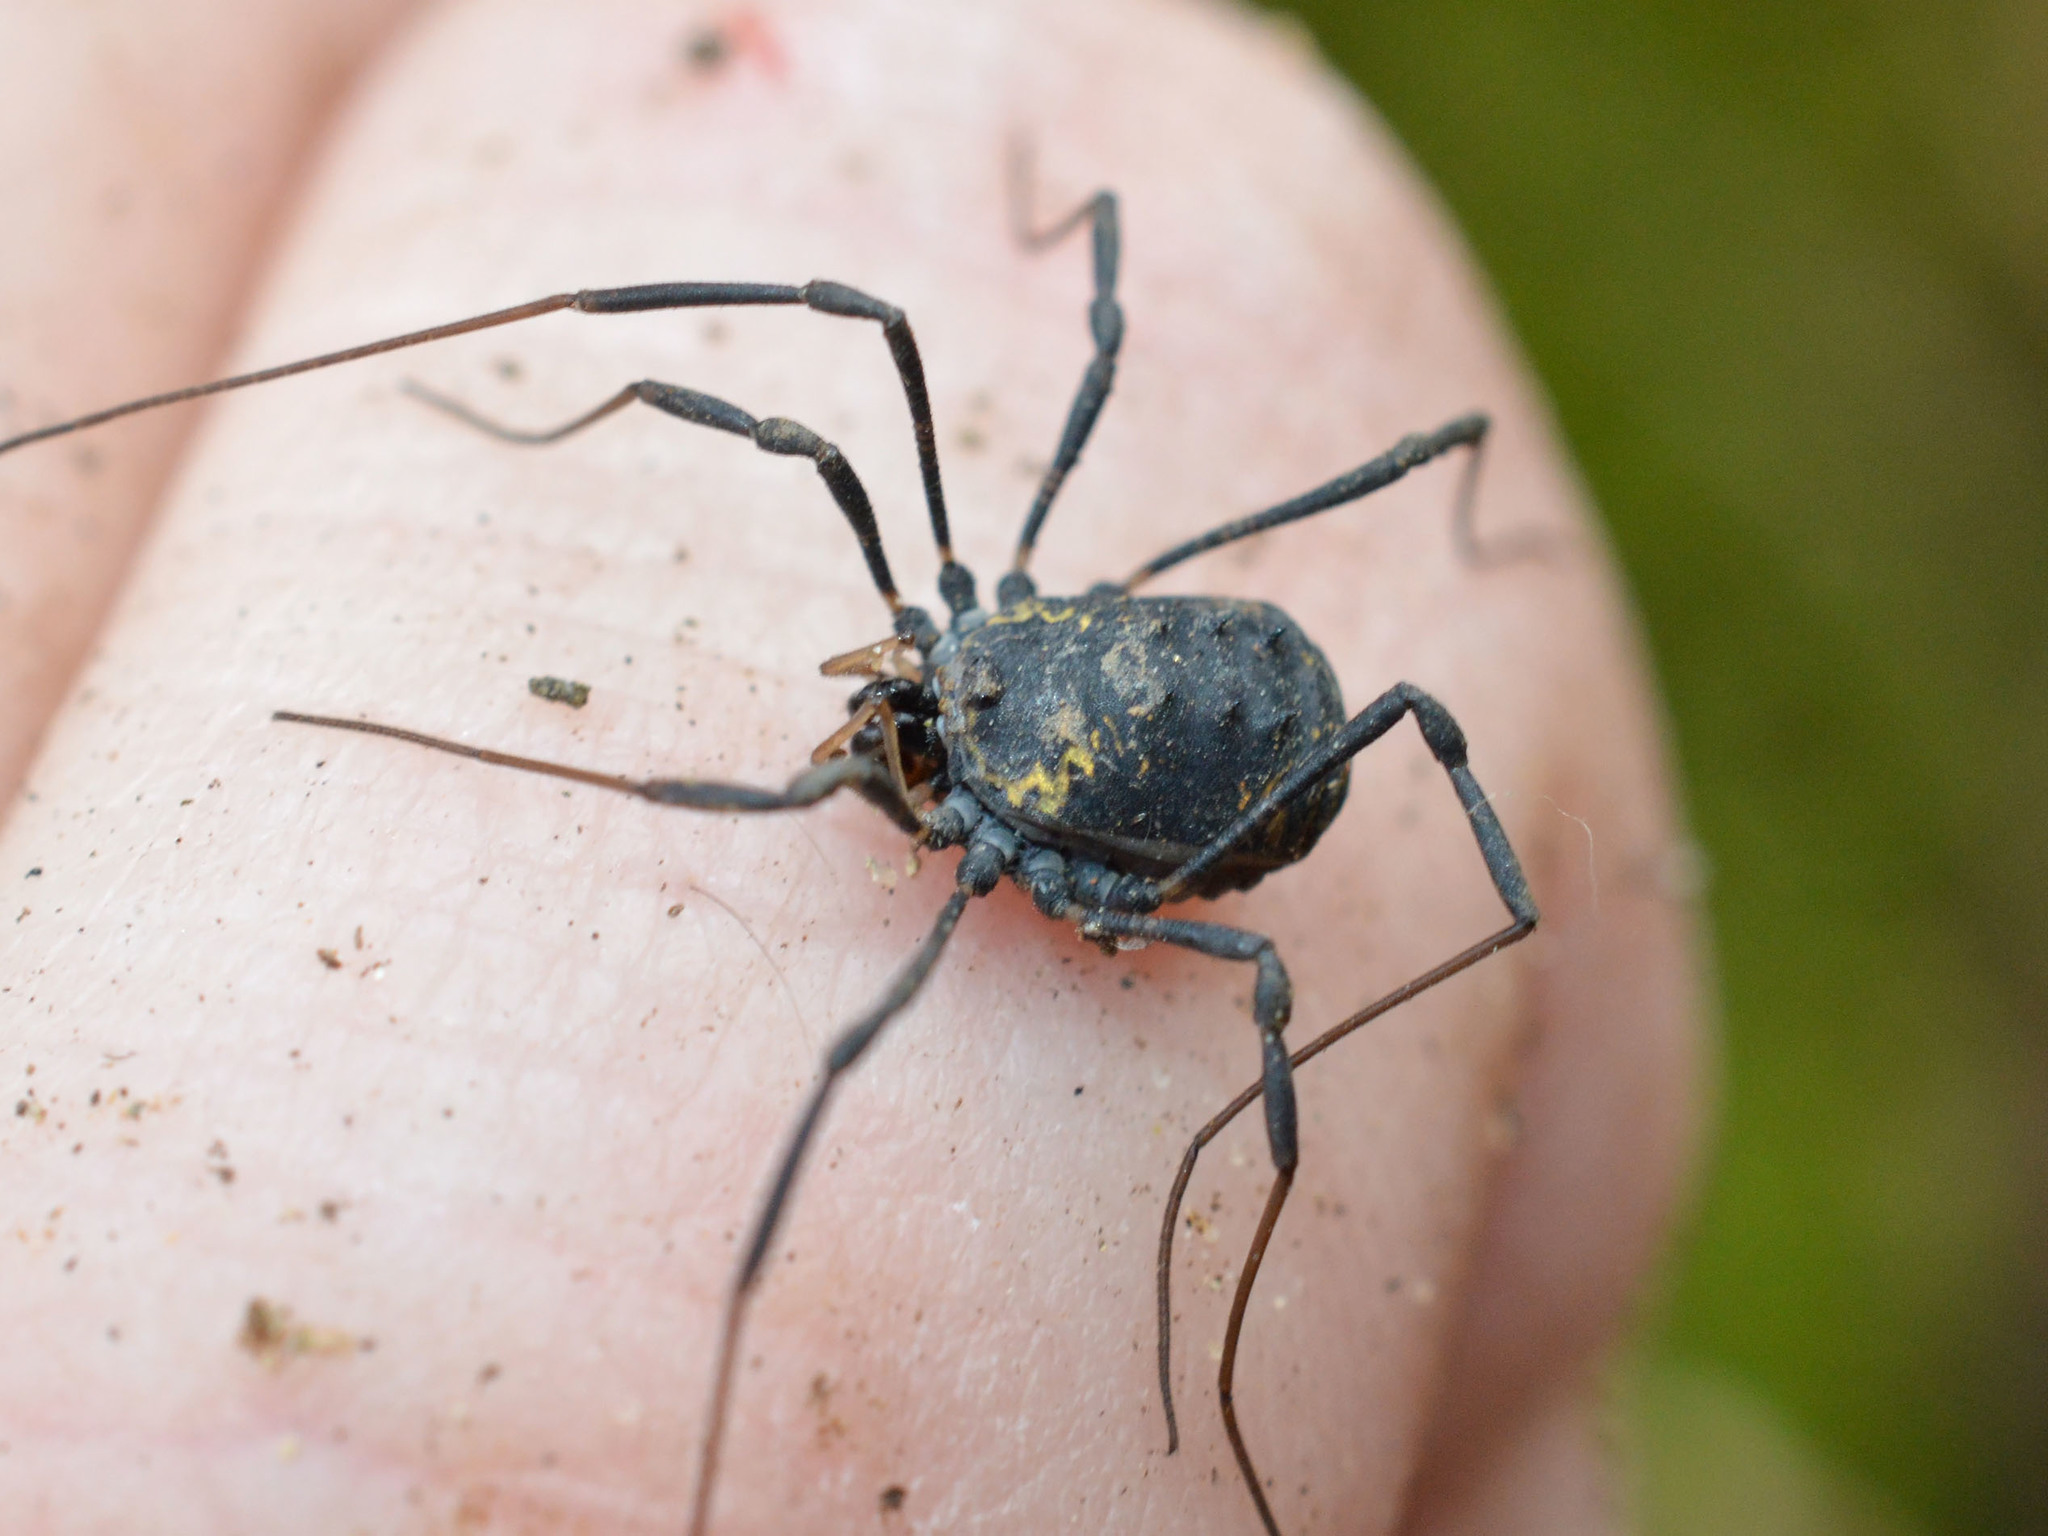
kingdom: Animalia
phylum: Arthropoda
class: Arachnida
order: Opiliones
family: Nemastomatidae
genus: Paranemastoma
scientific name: Paranemastoma radewi
